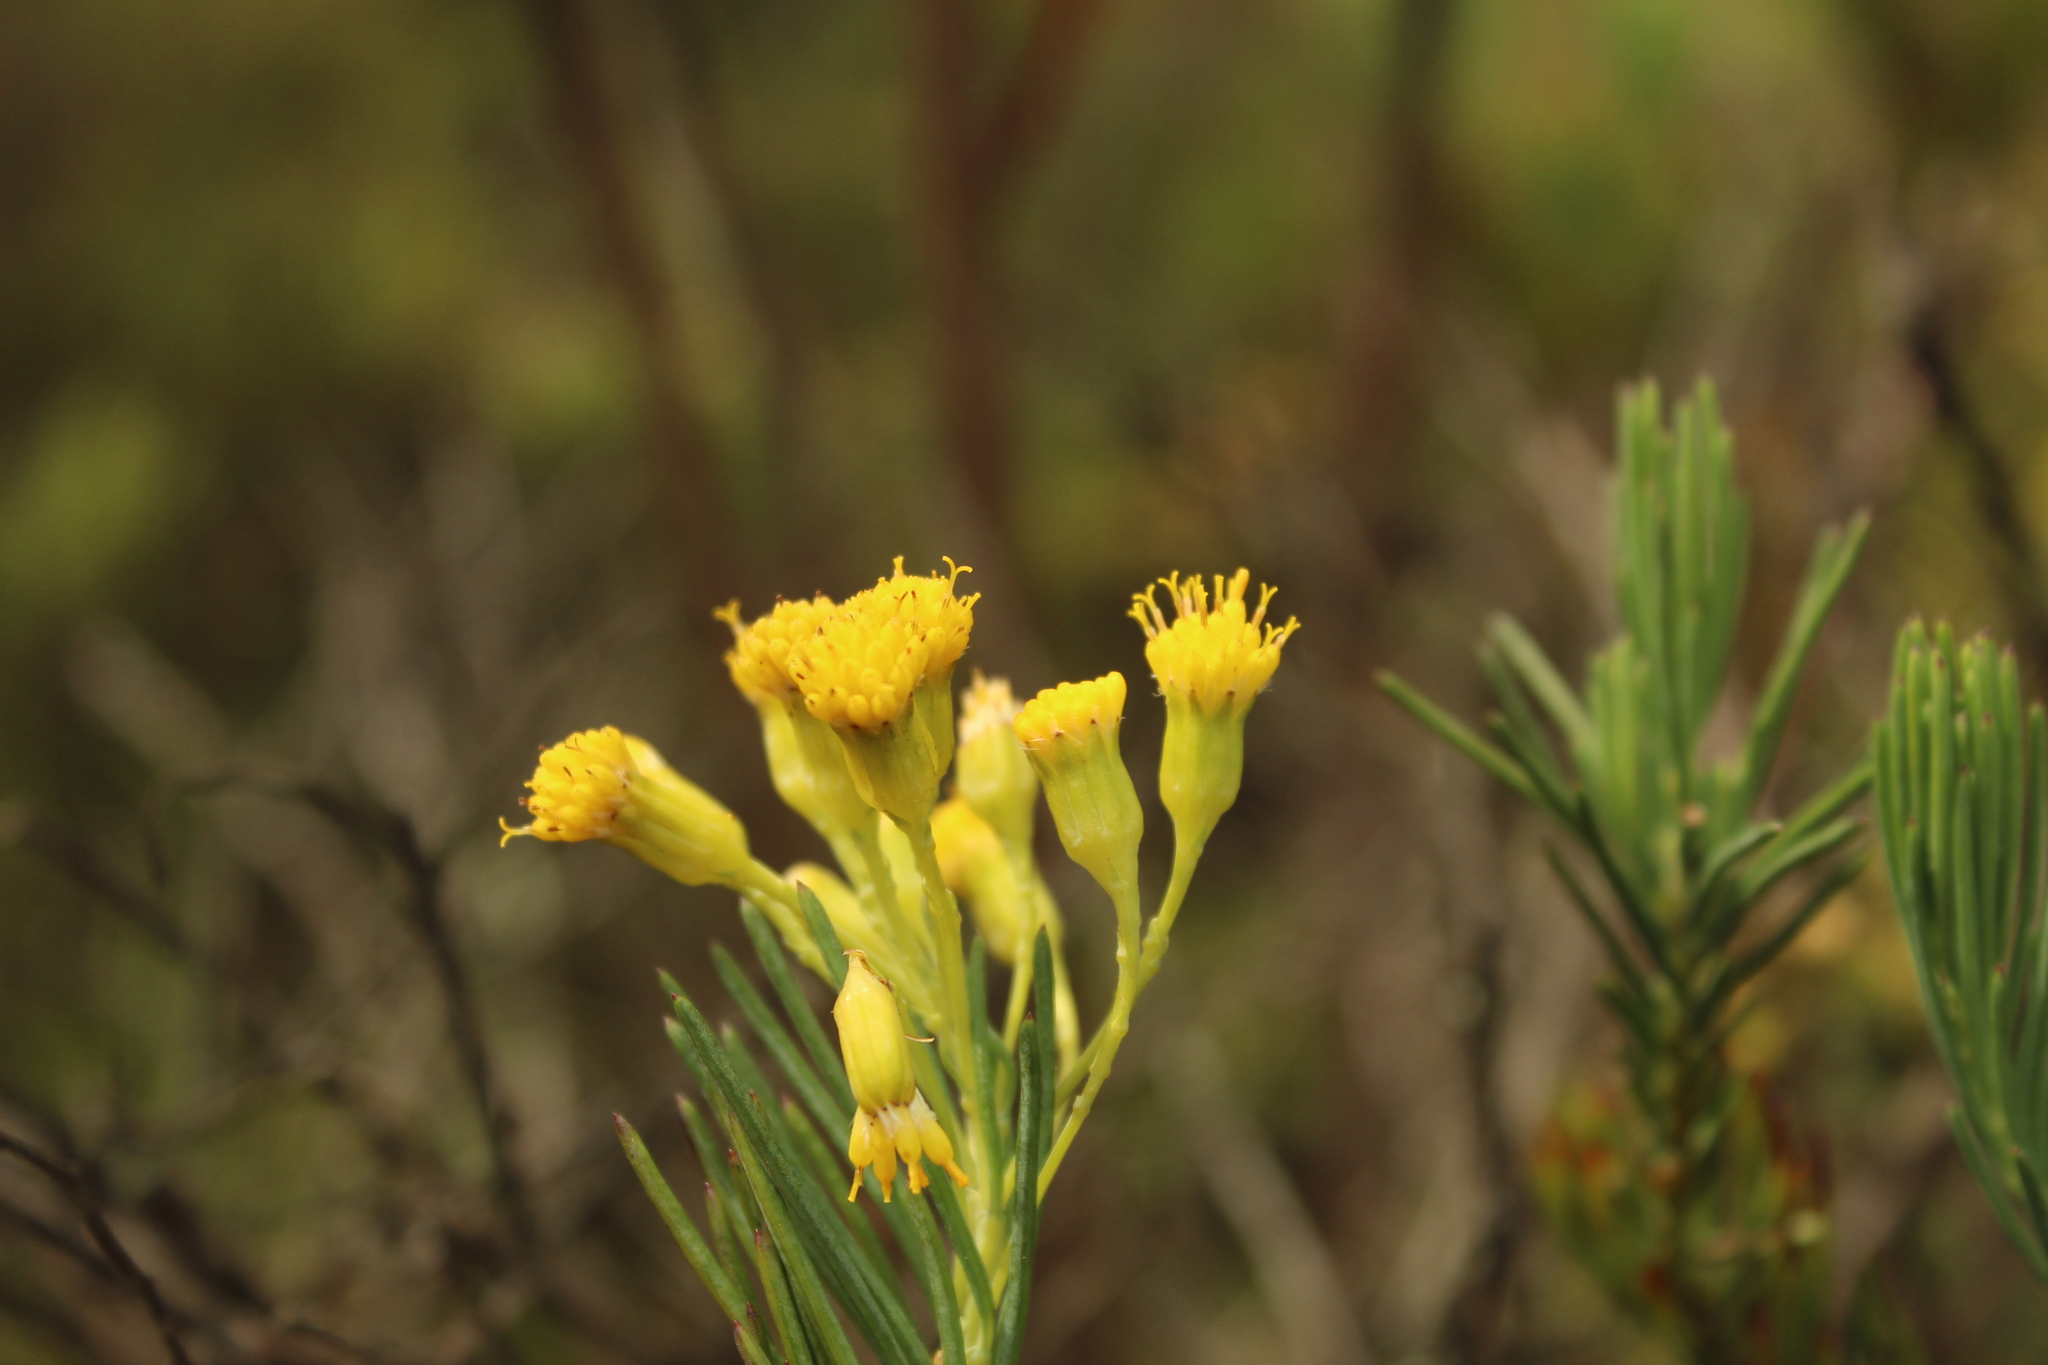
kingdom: Plantae
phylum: Tracheophyta
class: Magnoliopsida
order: Asterales
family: Asteraceae
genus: Monticalia
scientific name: Monticalia abietina
